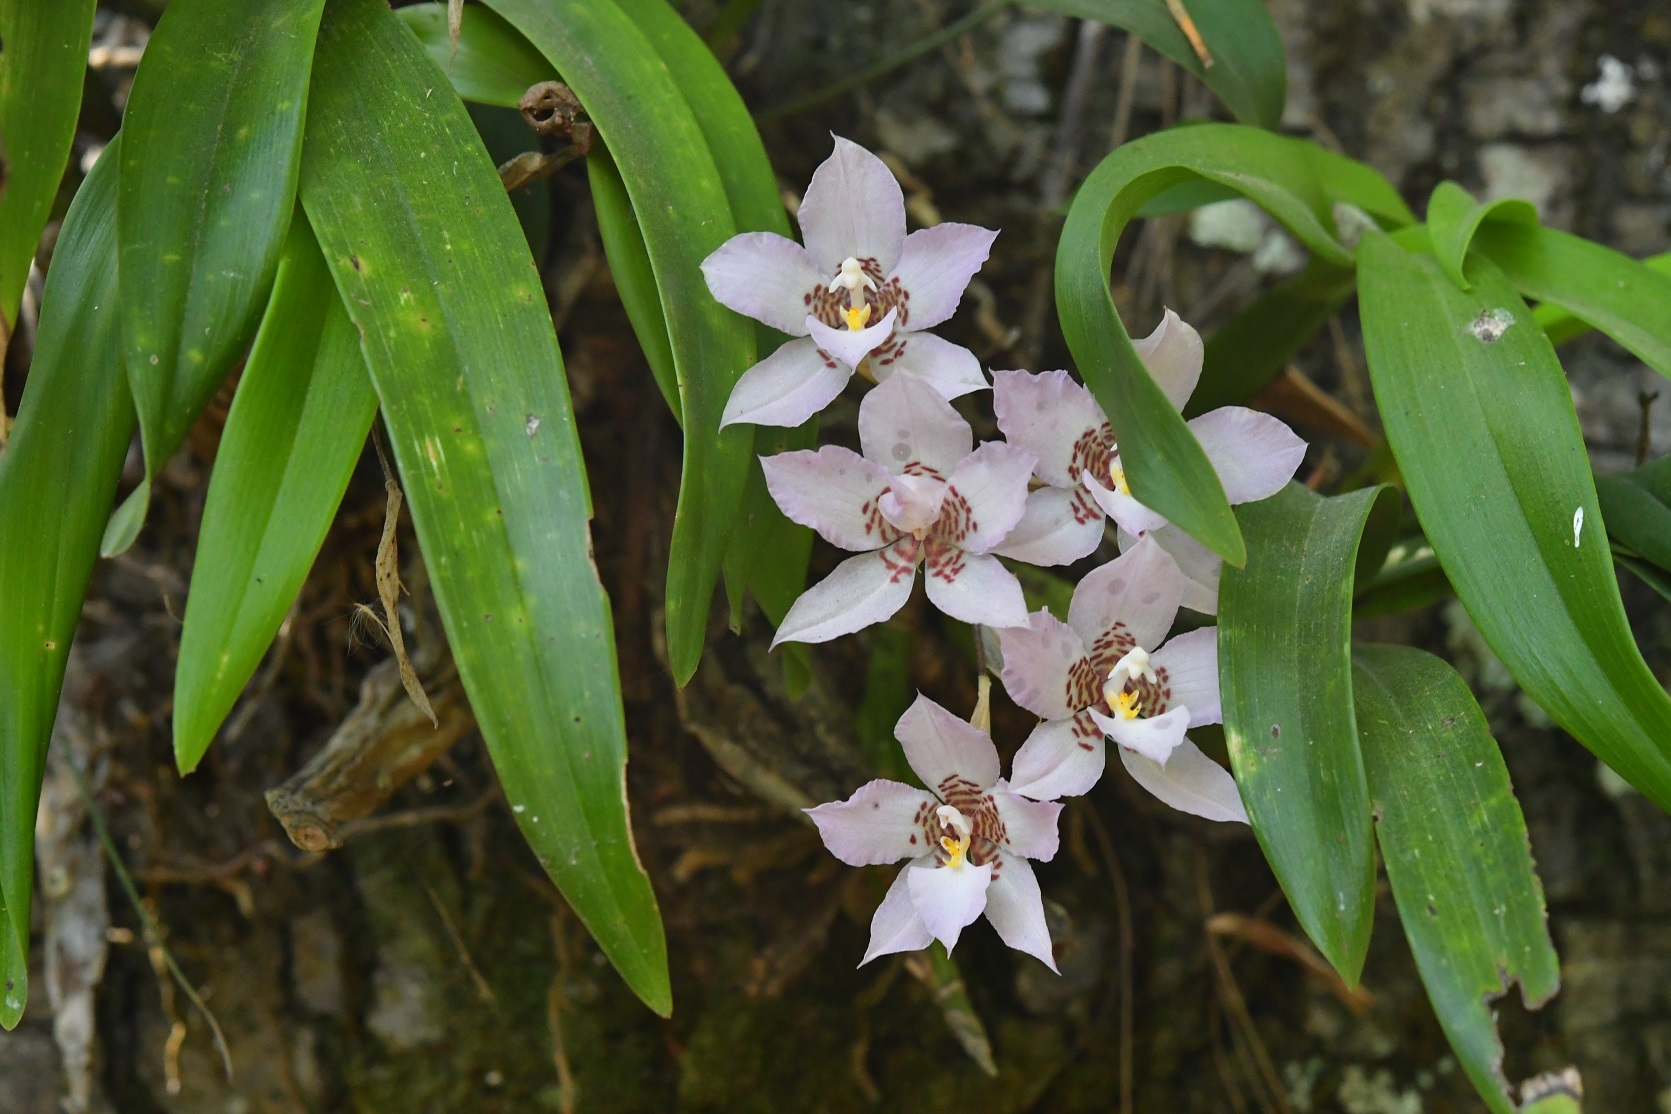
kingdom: Plantae
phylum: Tracheophyta
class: Liliopsida
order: Asparagales
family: Orchidaceae
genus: Rhynchostele
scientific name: Rhynchostele cervantesii
